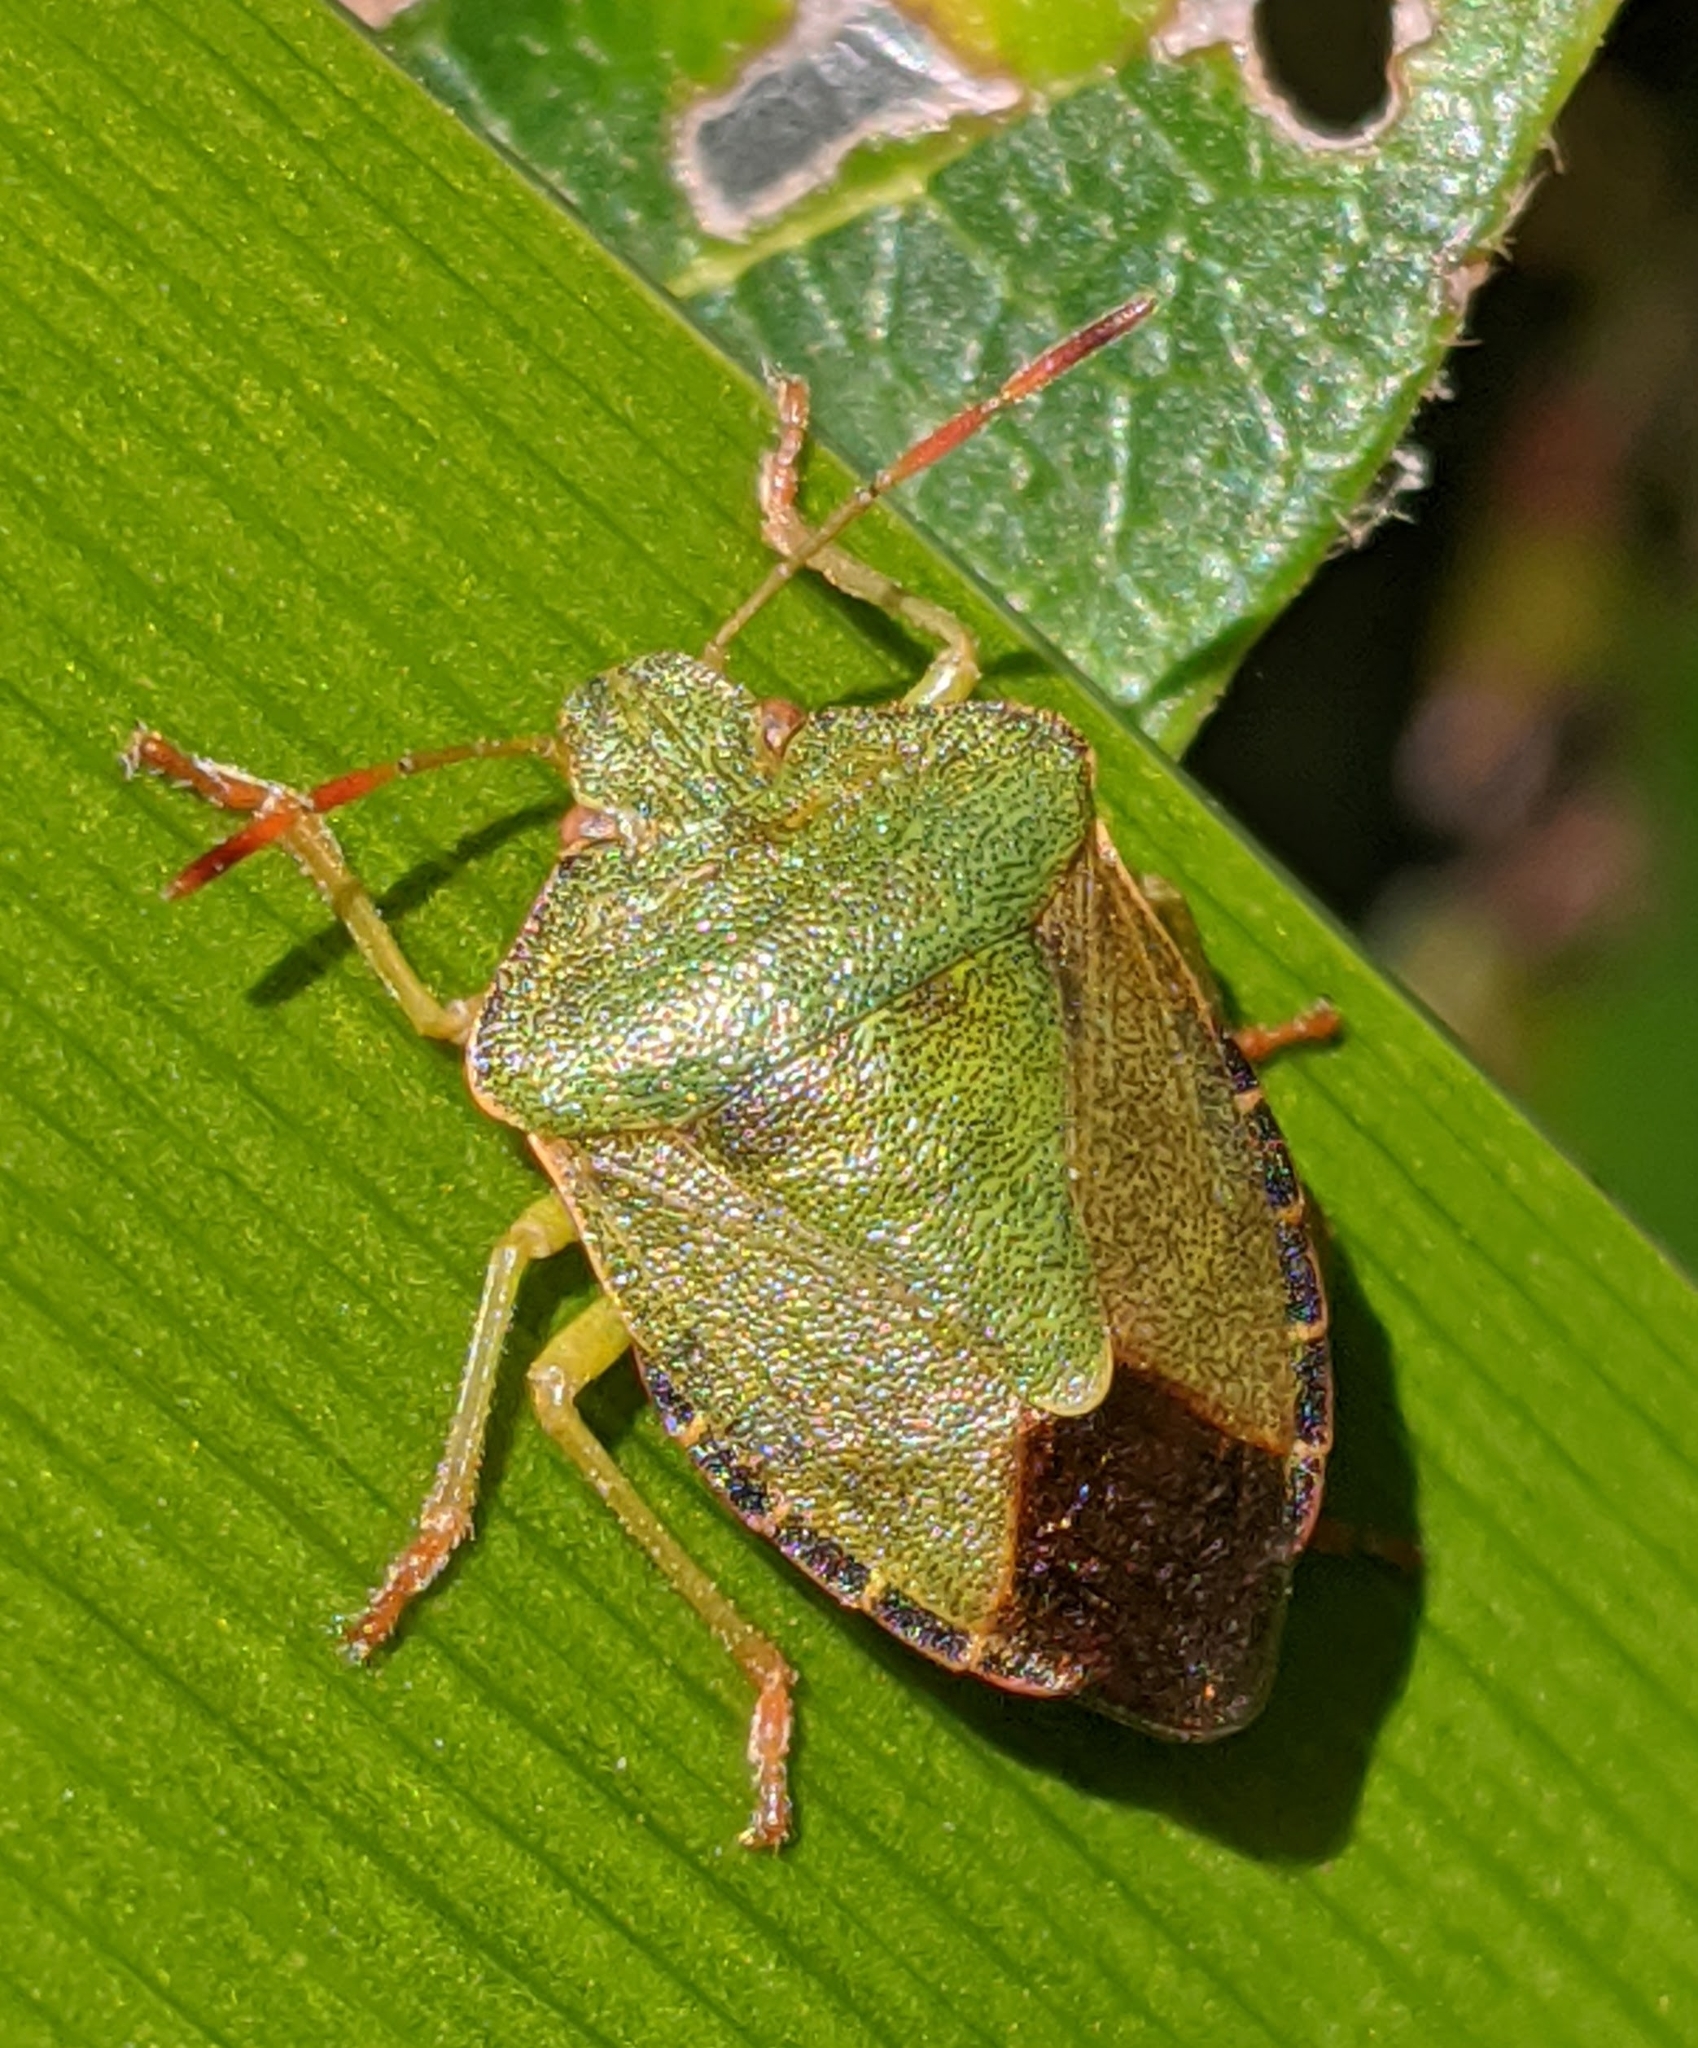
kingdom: Animalia
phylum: Arthropoda
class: Insecta
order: Hemiptera
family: Pentatomidae
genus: Palomena
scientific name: Palomena prasina
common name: Green shieldbug
